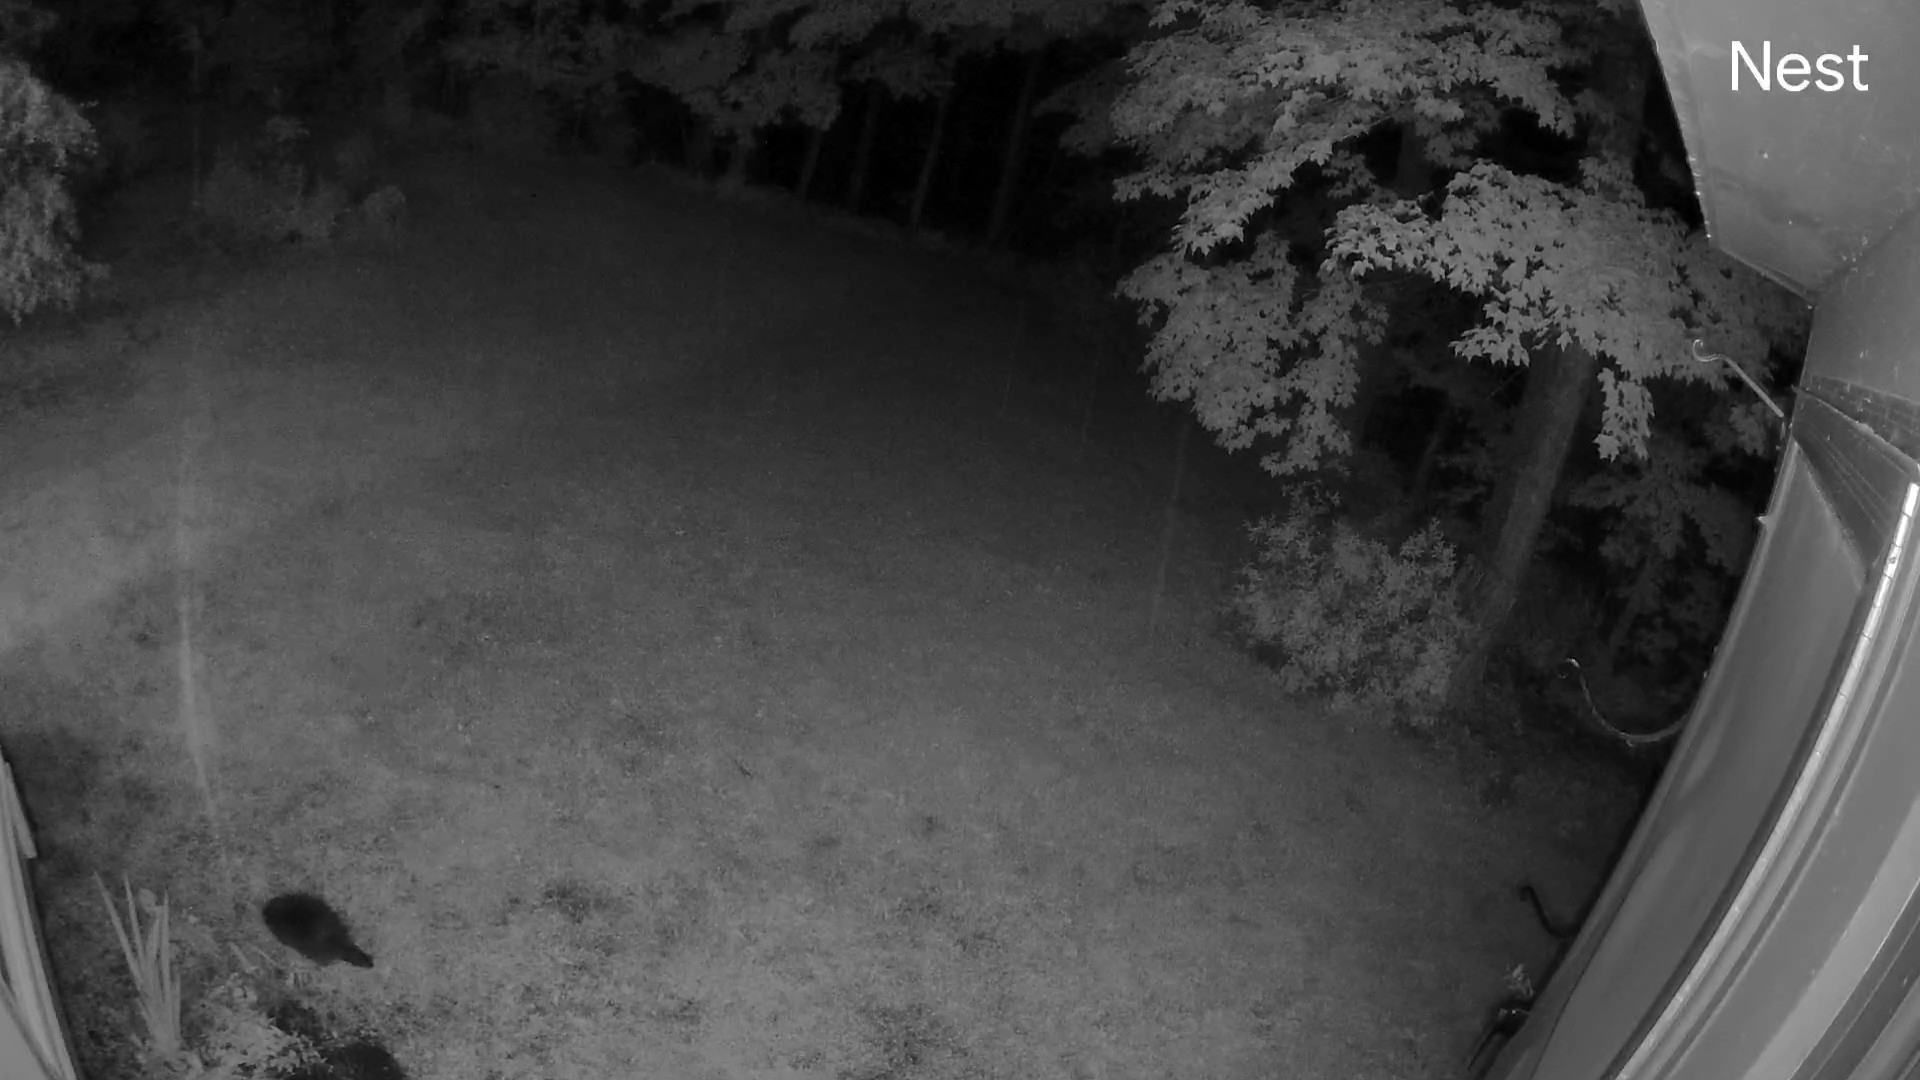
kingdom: Animalia
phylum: Chordata
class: Mammalia
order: Rodentia
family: Erethizontidae
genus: Erethizon
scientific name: Erethizon dorsatus
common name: North american porcupine
